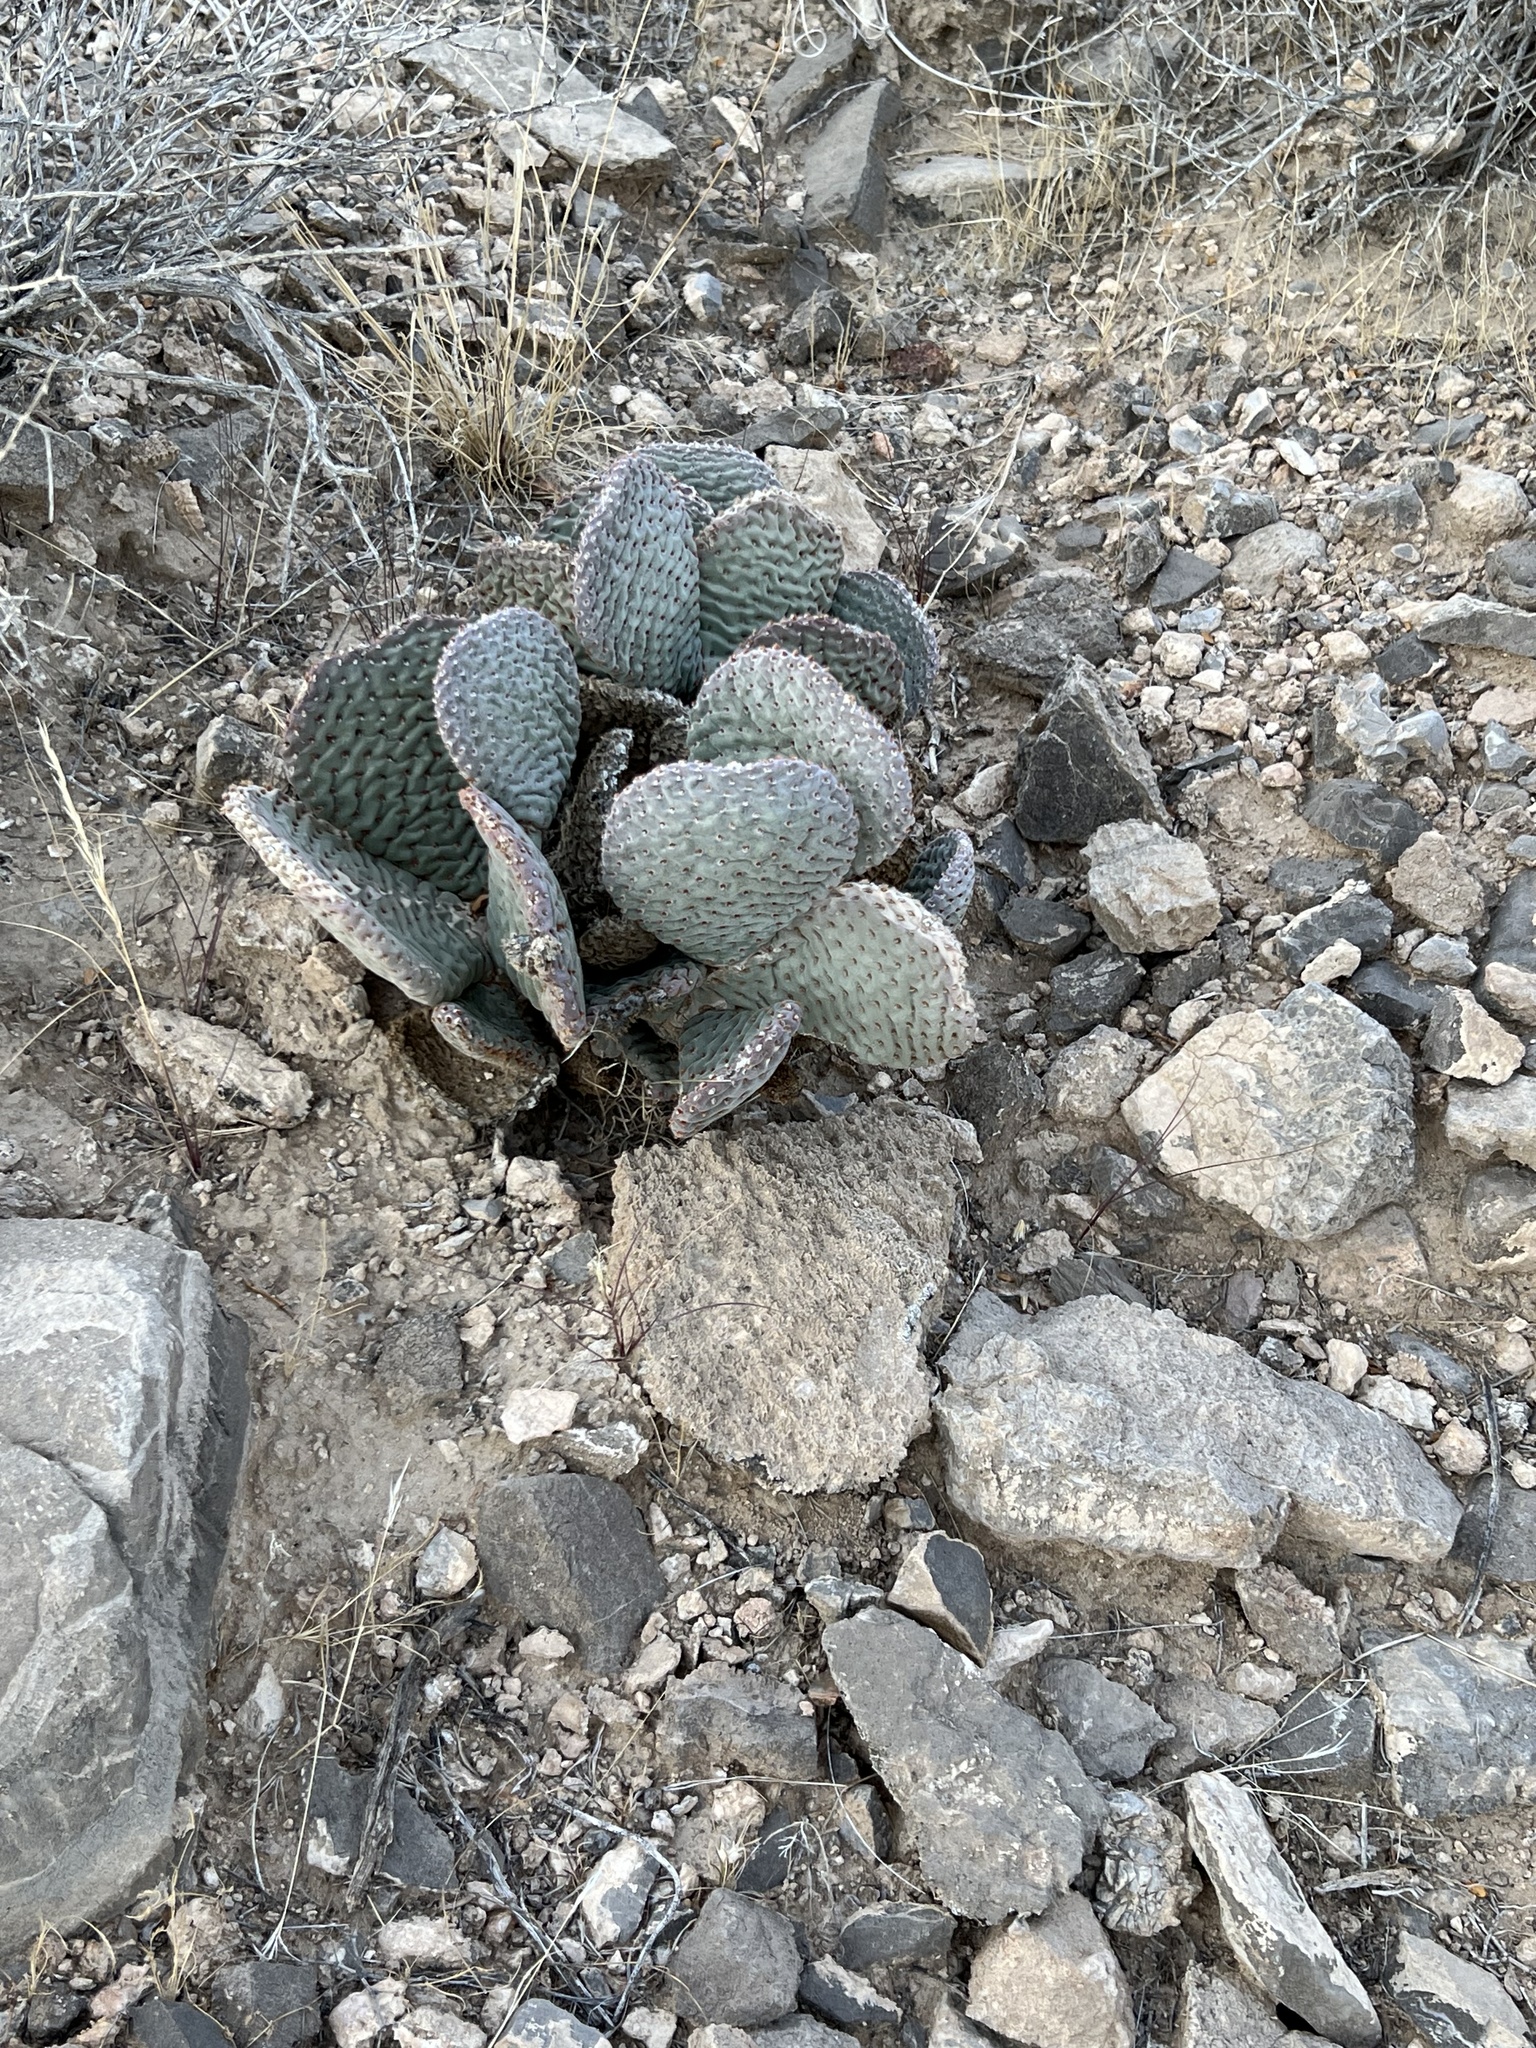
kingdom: Plantae
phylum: Tracheophyta
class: Magnoliopsida
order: Caryophyllales
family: Cactaceae
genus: Opuntia
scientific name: Opuntia basilaris
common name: Beavertail prickly-pear
